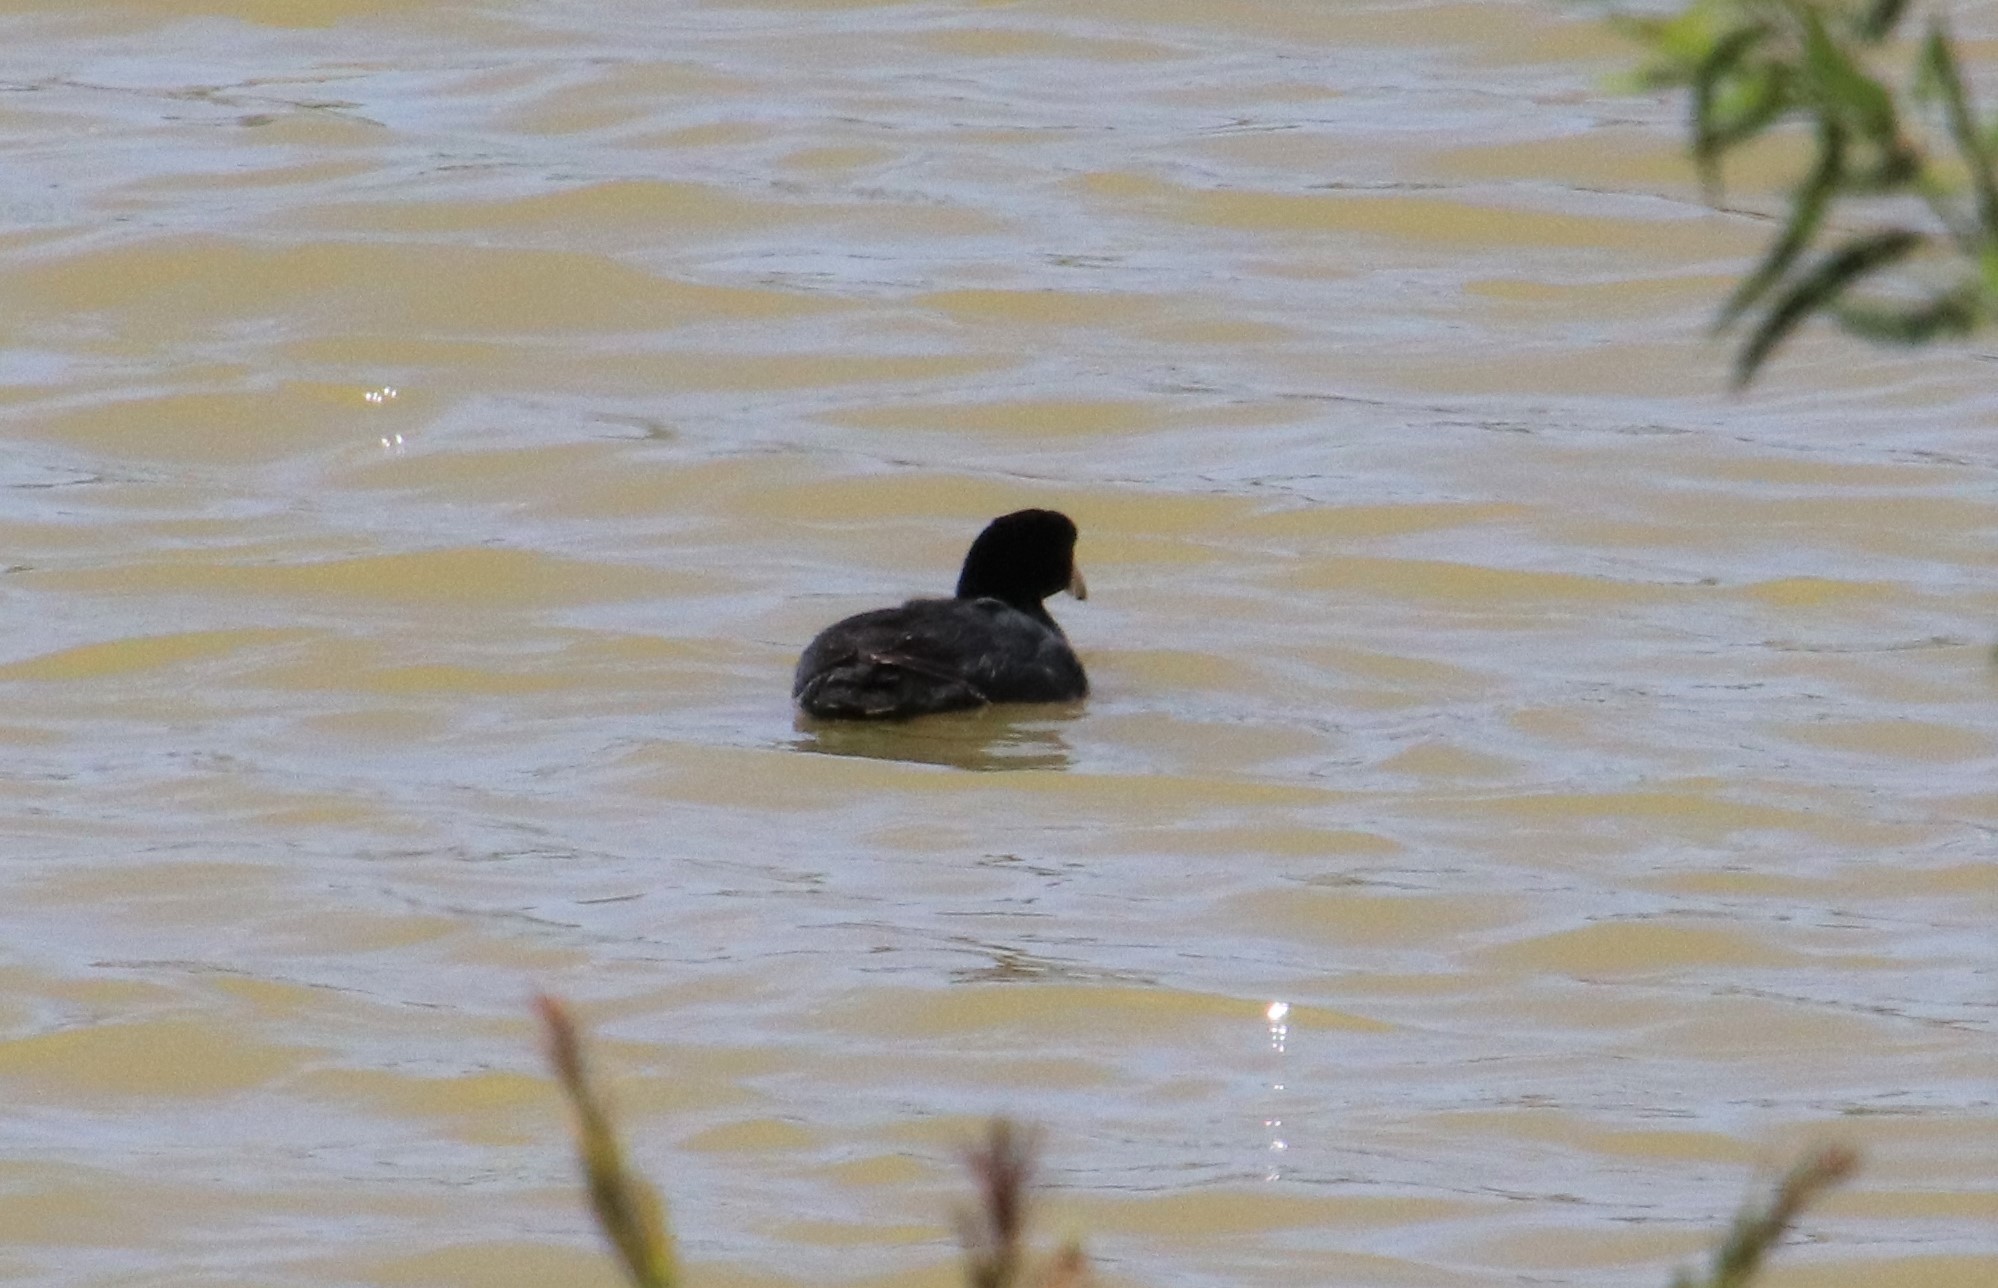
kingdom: Animalia
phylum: Chordata
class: Aves
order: Gruiformes
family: Rallidae
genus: Fulica
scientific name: Fulica americana
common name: American coot
